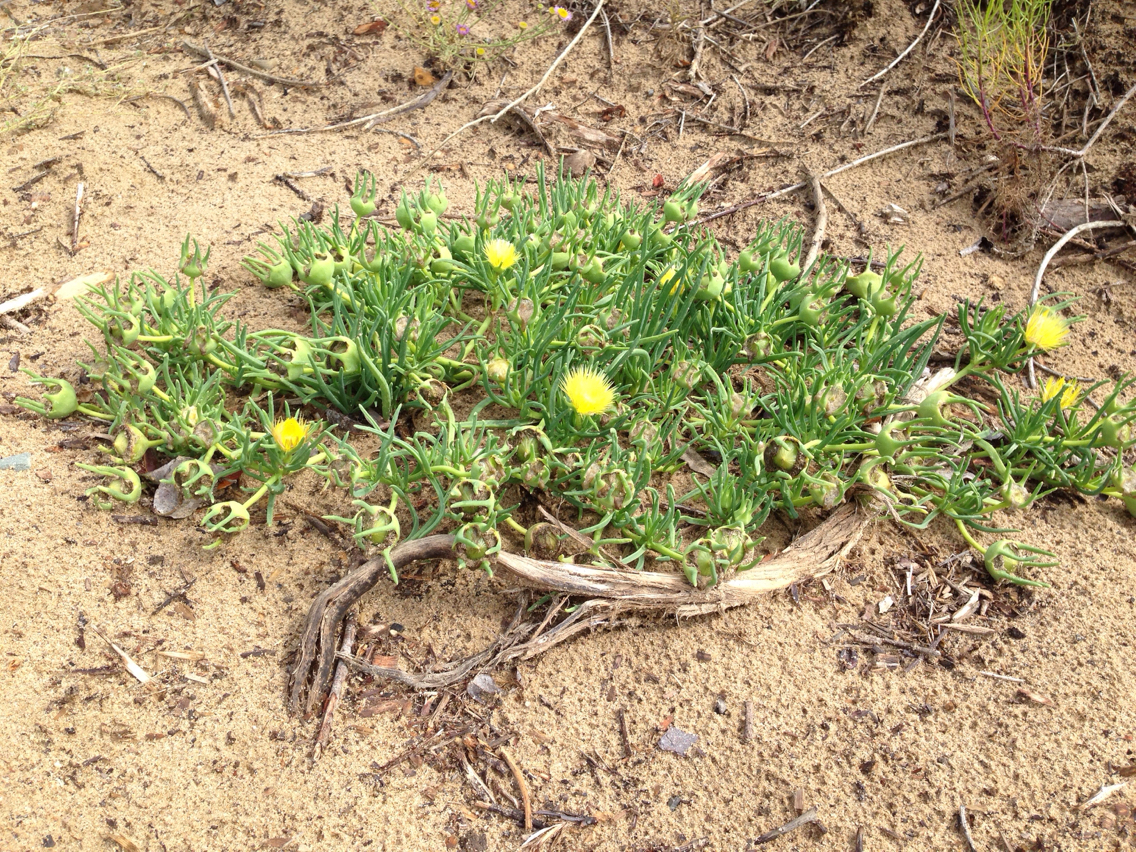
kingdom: Plantae
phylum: Tracheophyta
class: Magnoliopsida
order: Caryophyllales
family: Aizoaceae
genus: Conicosia
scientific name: Conicosia pugioniformis
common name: Narrow-leaved iceplant
